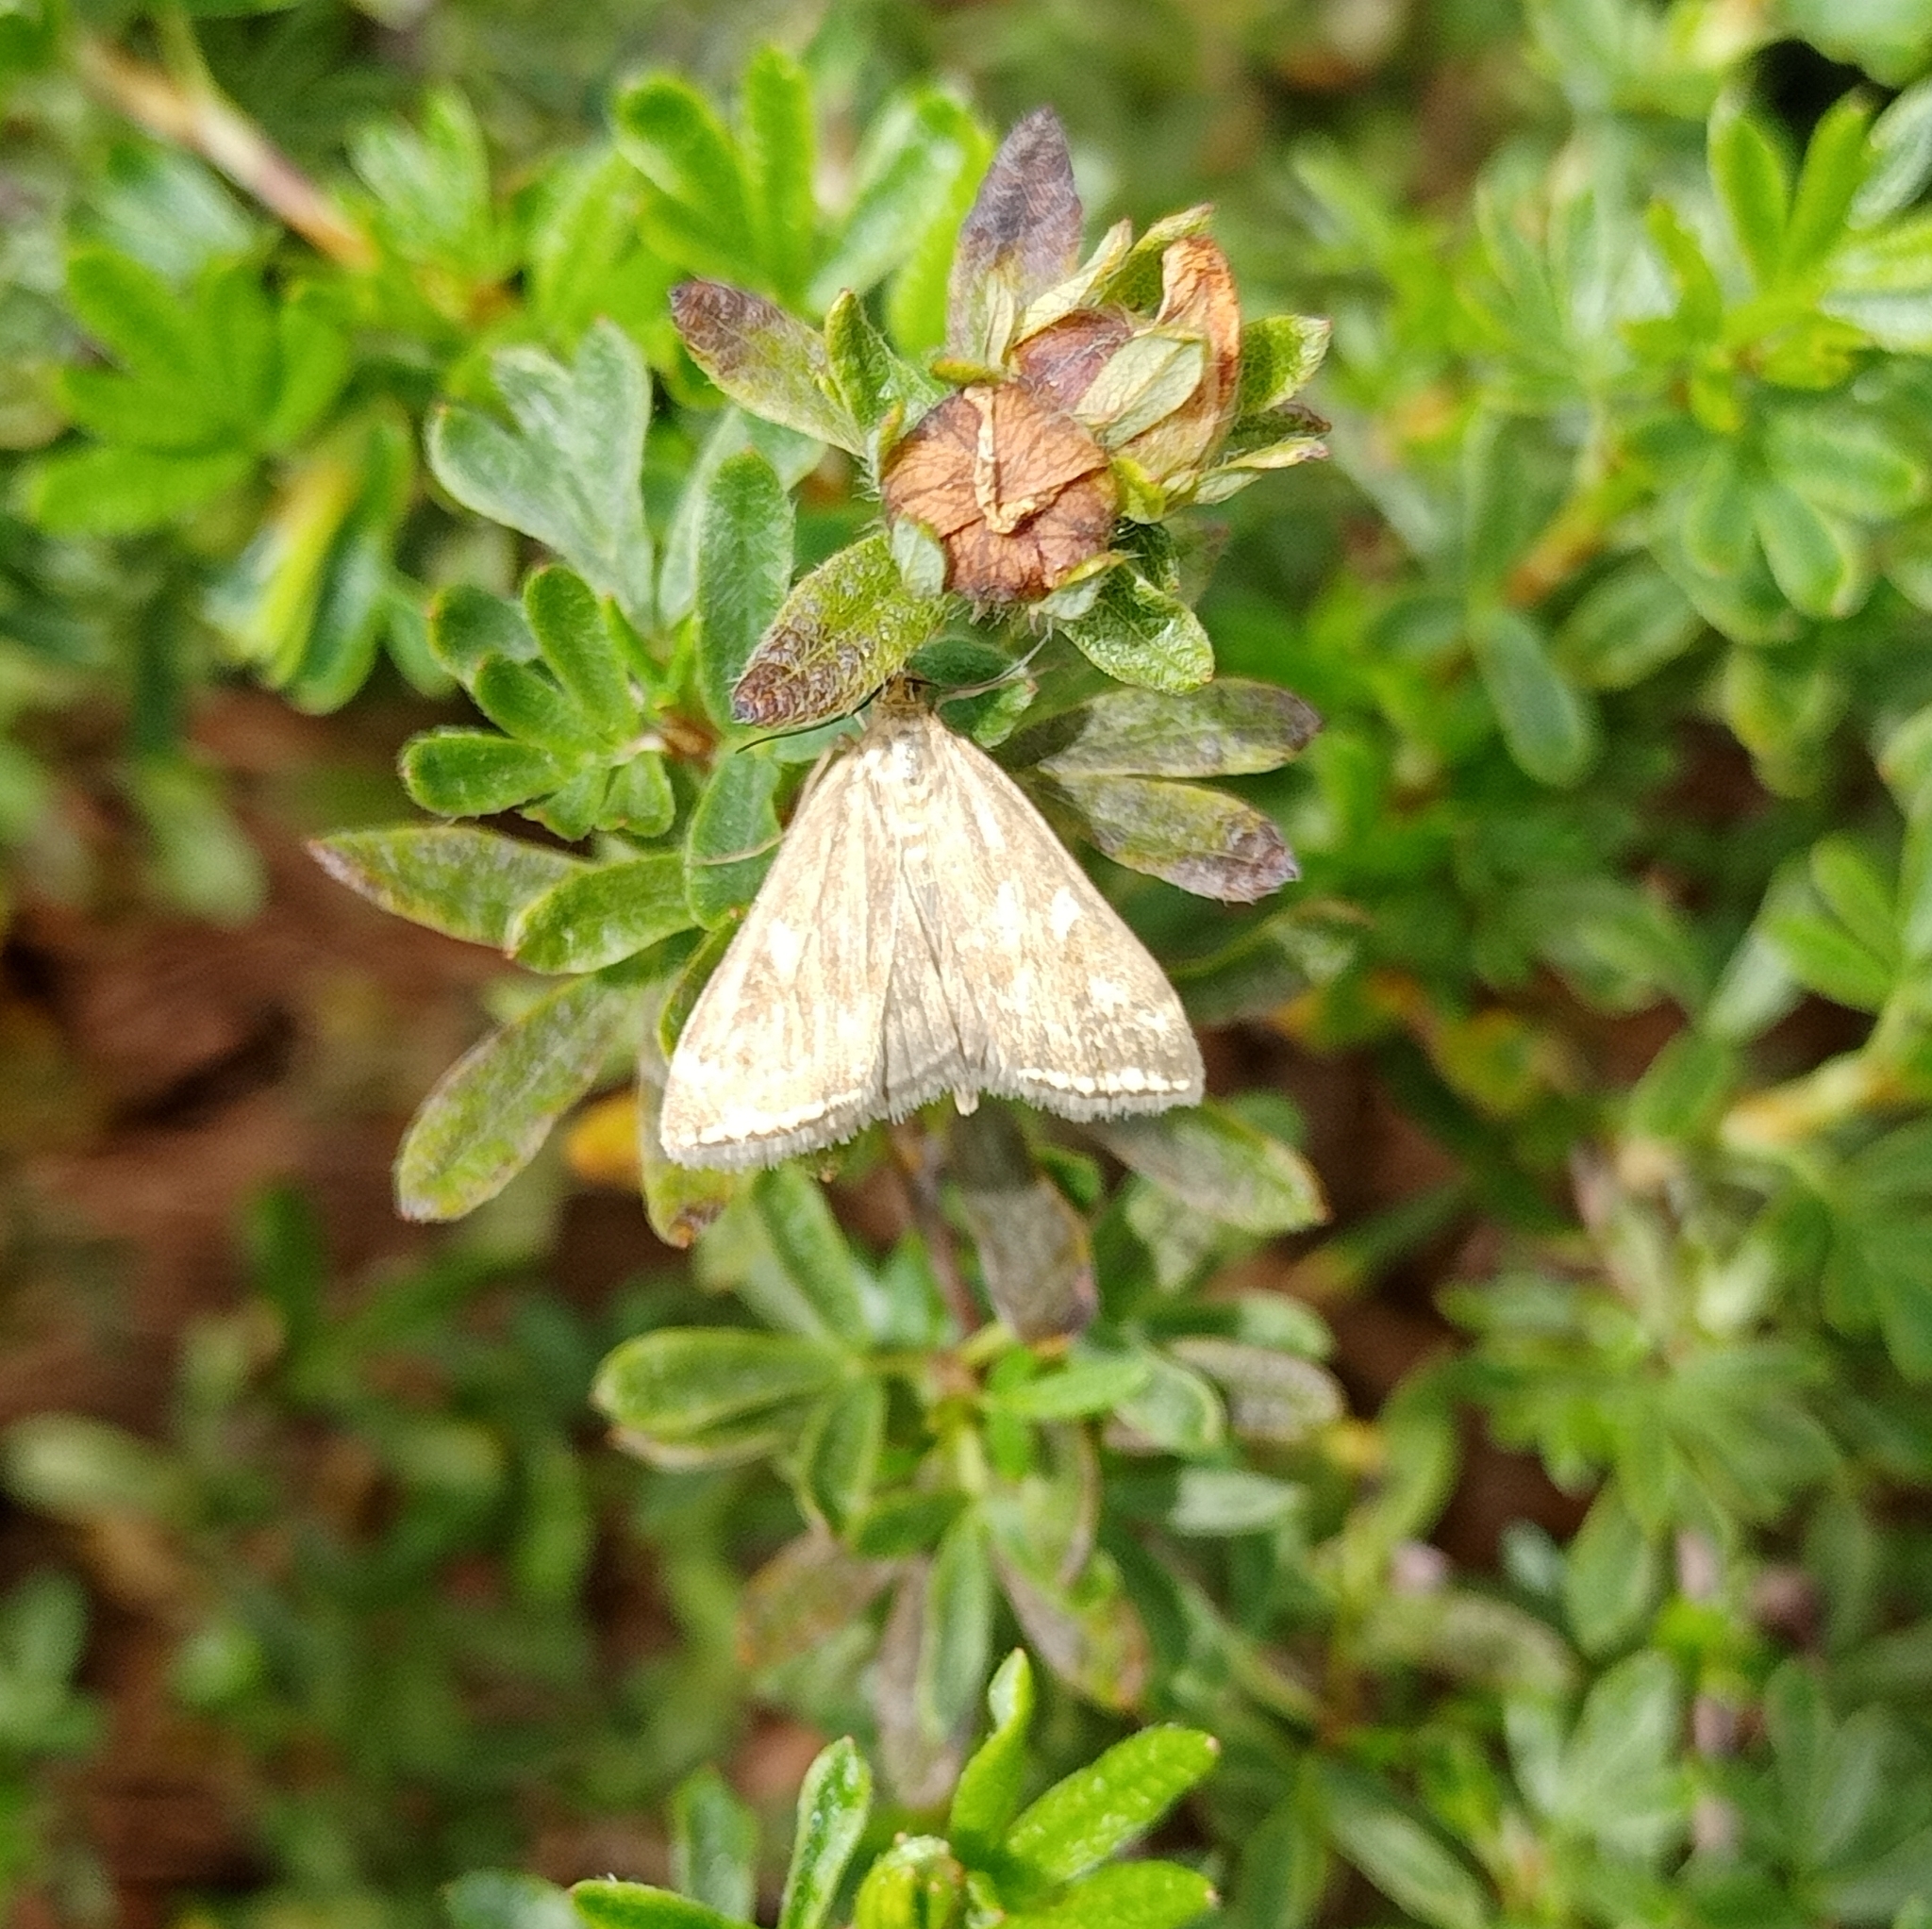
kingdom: Animalia
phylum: Arthropoda
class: Insecta
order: Lepidoptera
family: Crambidae
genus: Loxostege
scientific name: Loxostege sticticalis
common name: Crambid moth
